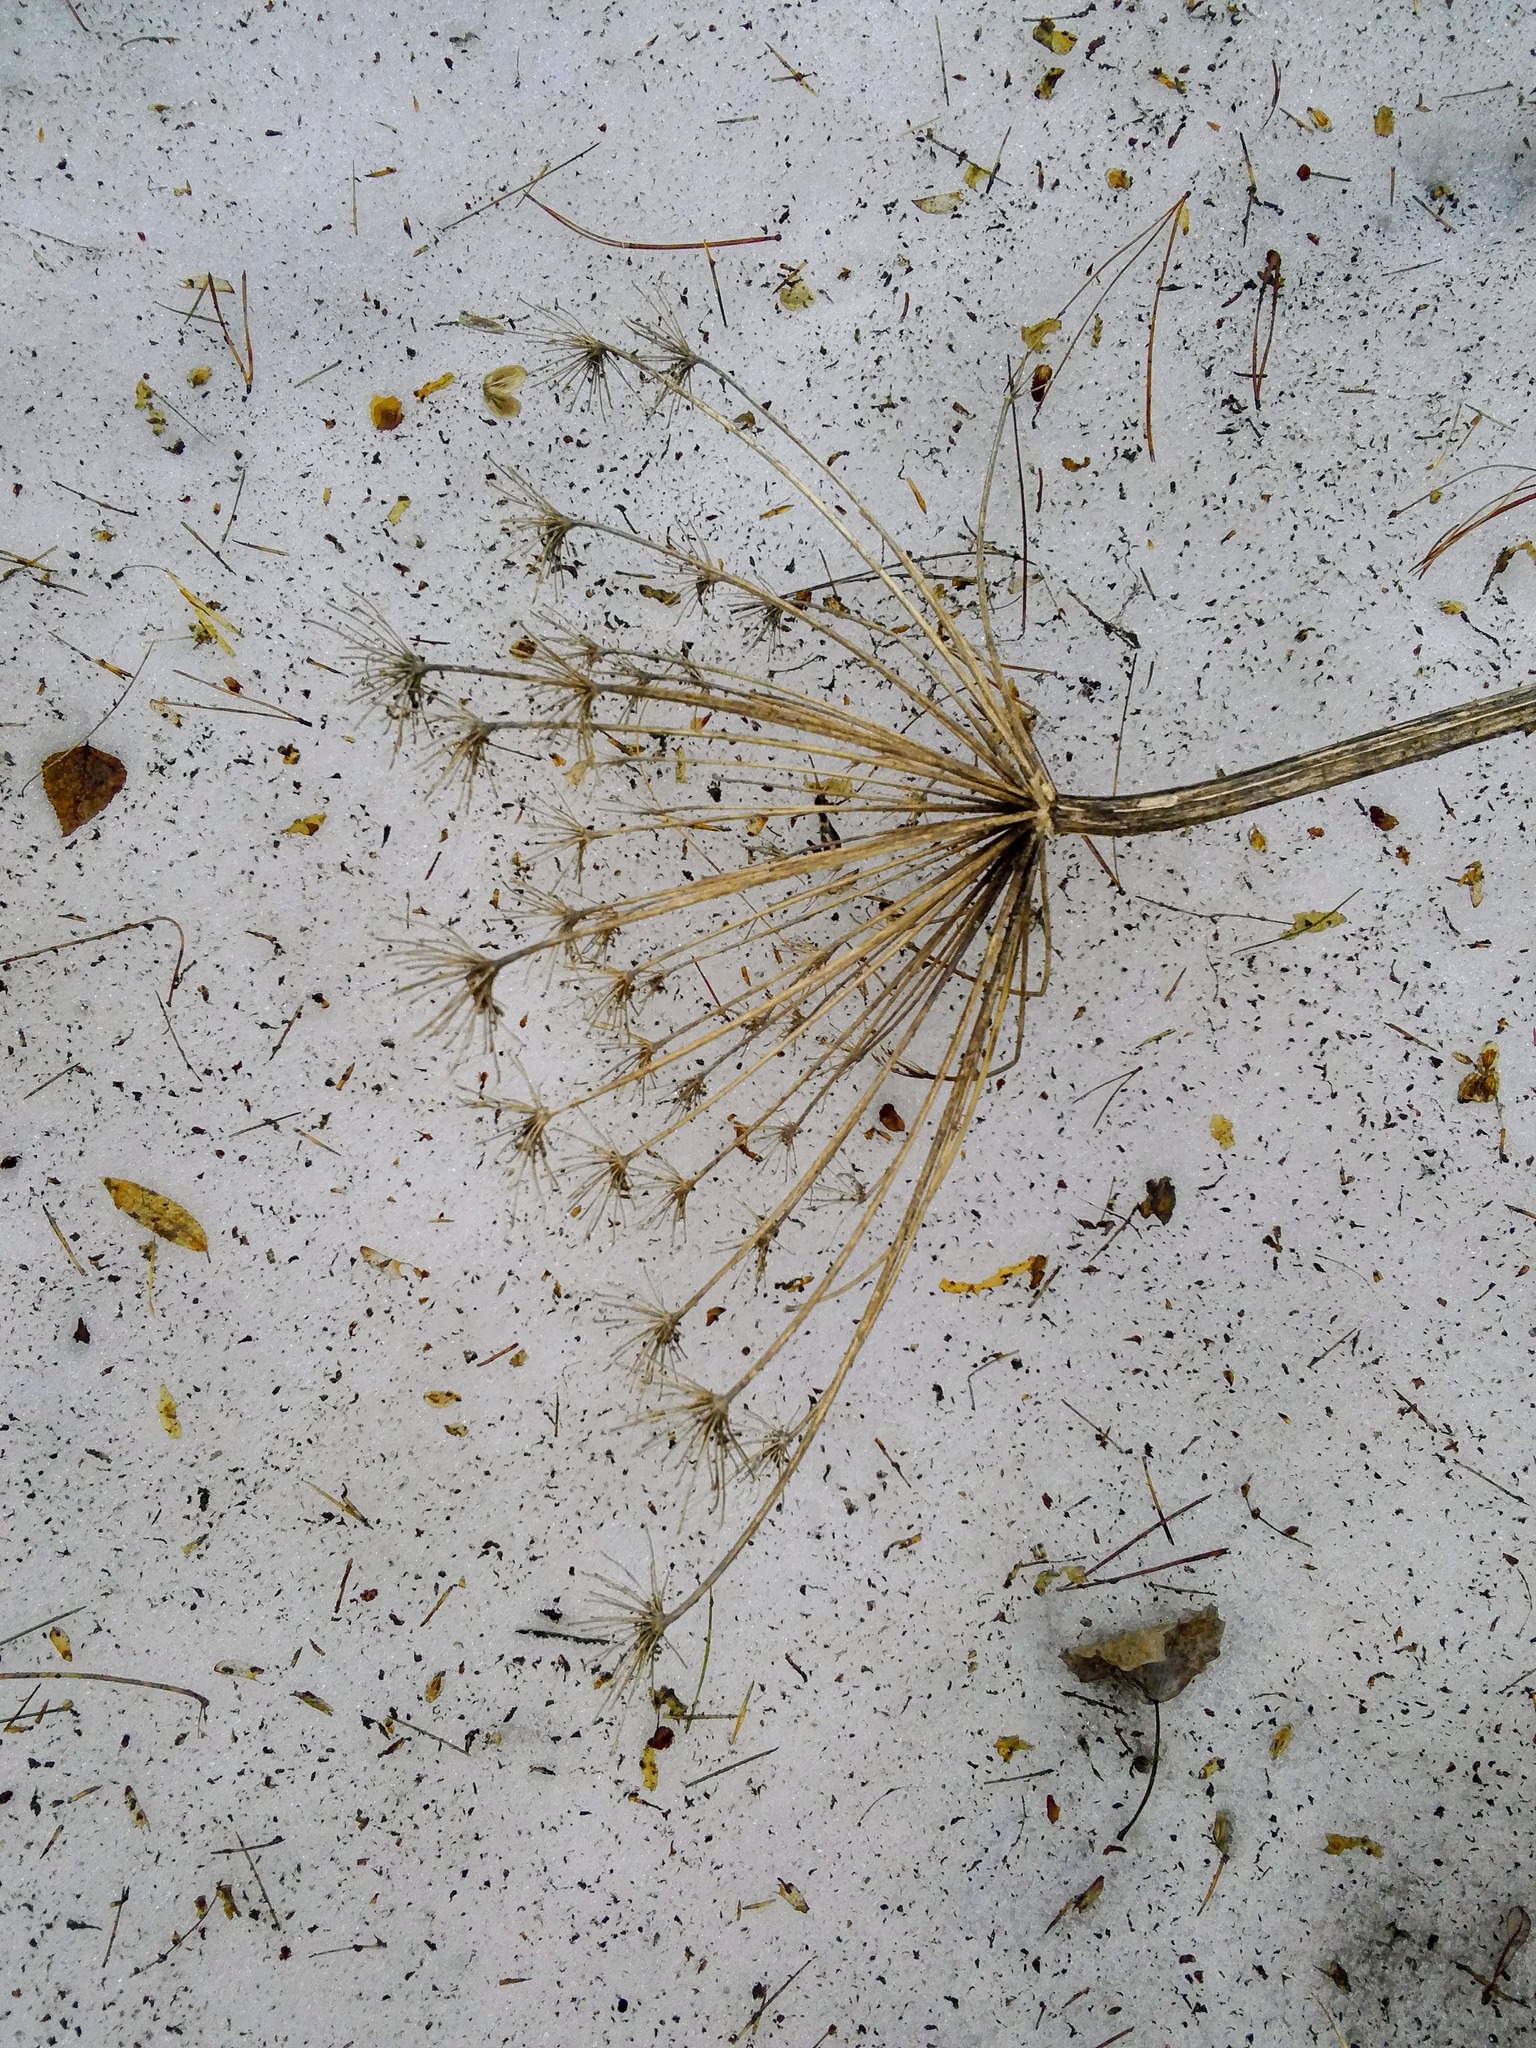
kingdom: Plantae
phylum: Tracheophyta
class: Magnoliopsida
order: Apiales
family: Apiaceae
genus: Heracleum
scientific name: Heracleum sosnowskyi
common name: Sosnowsky's hogweed
